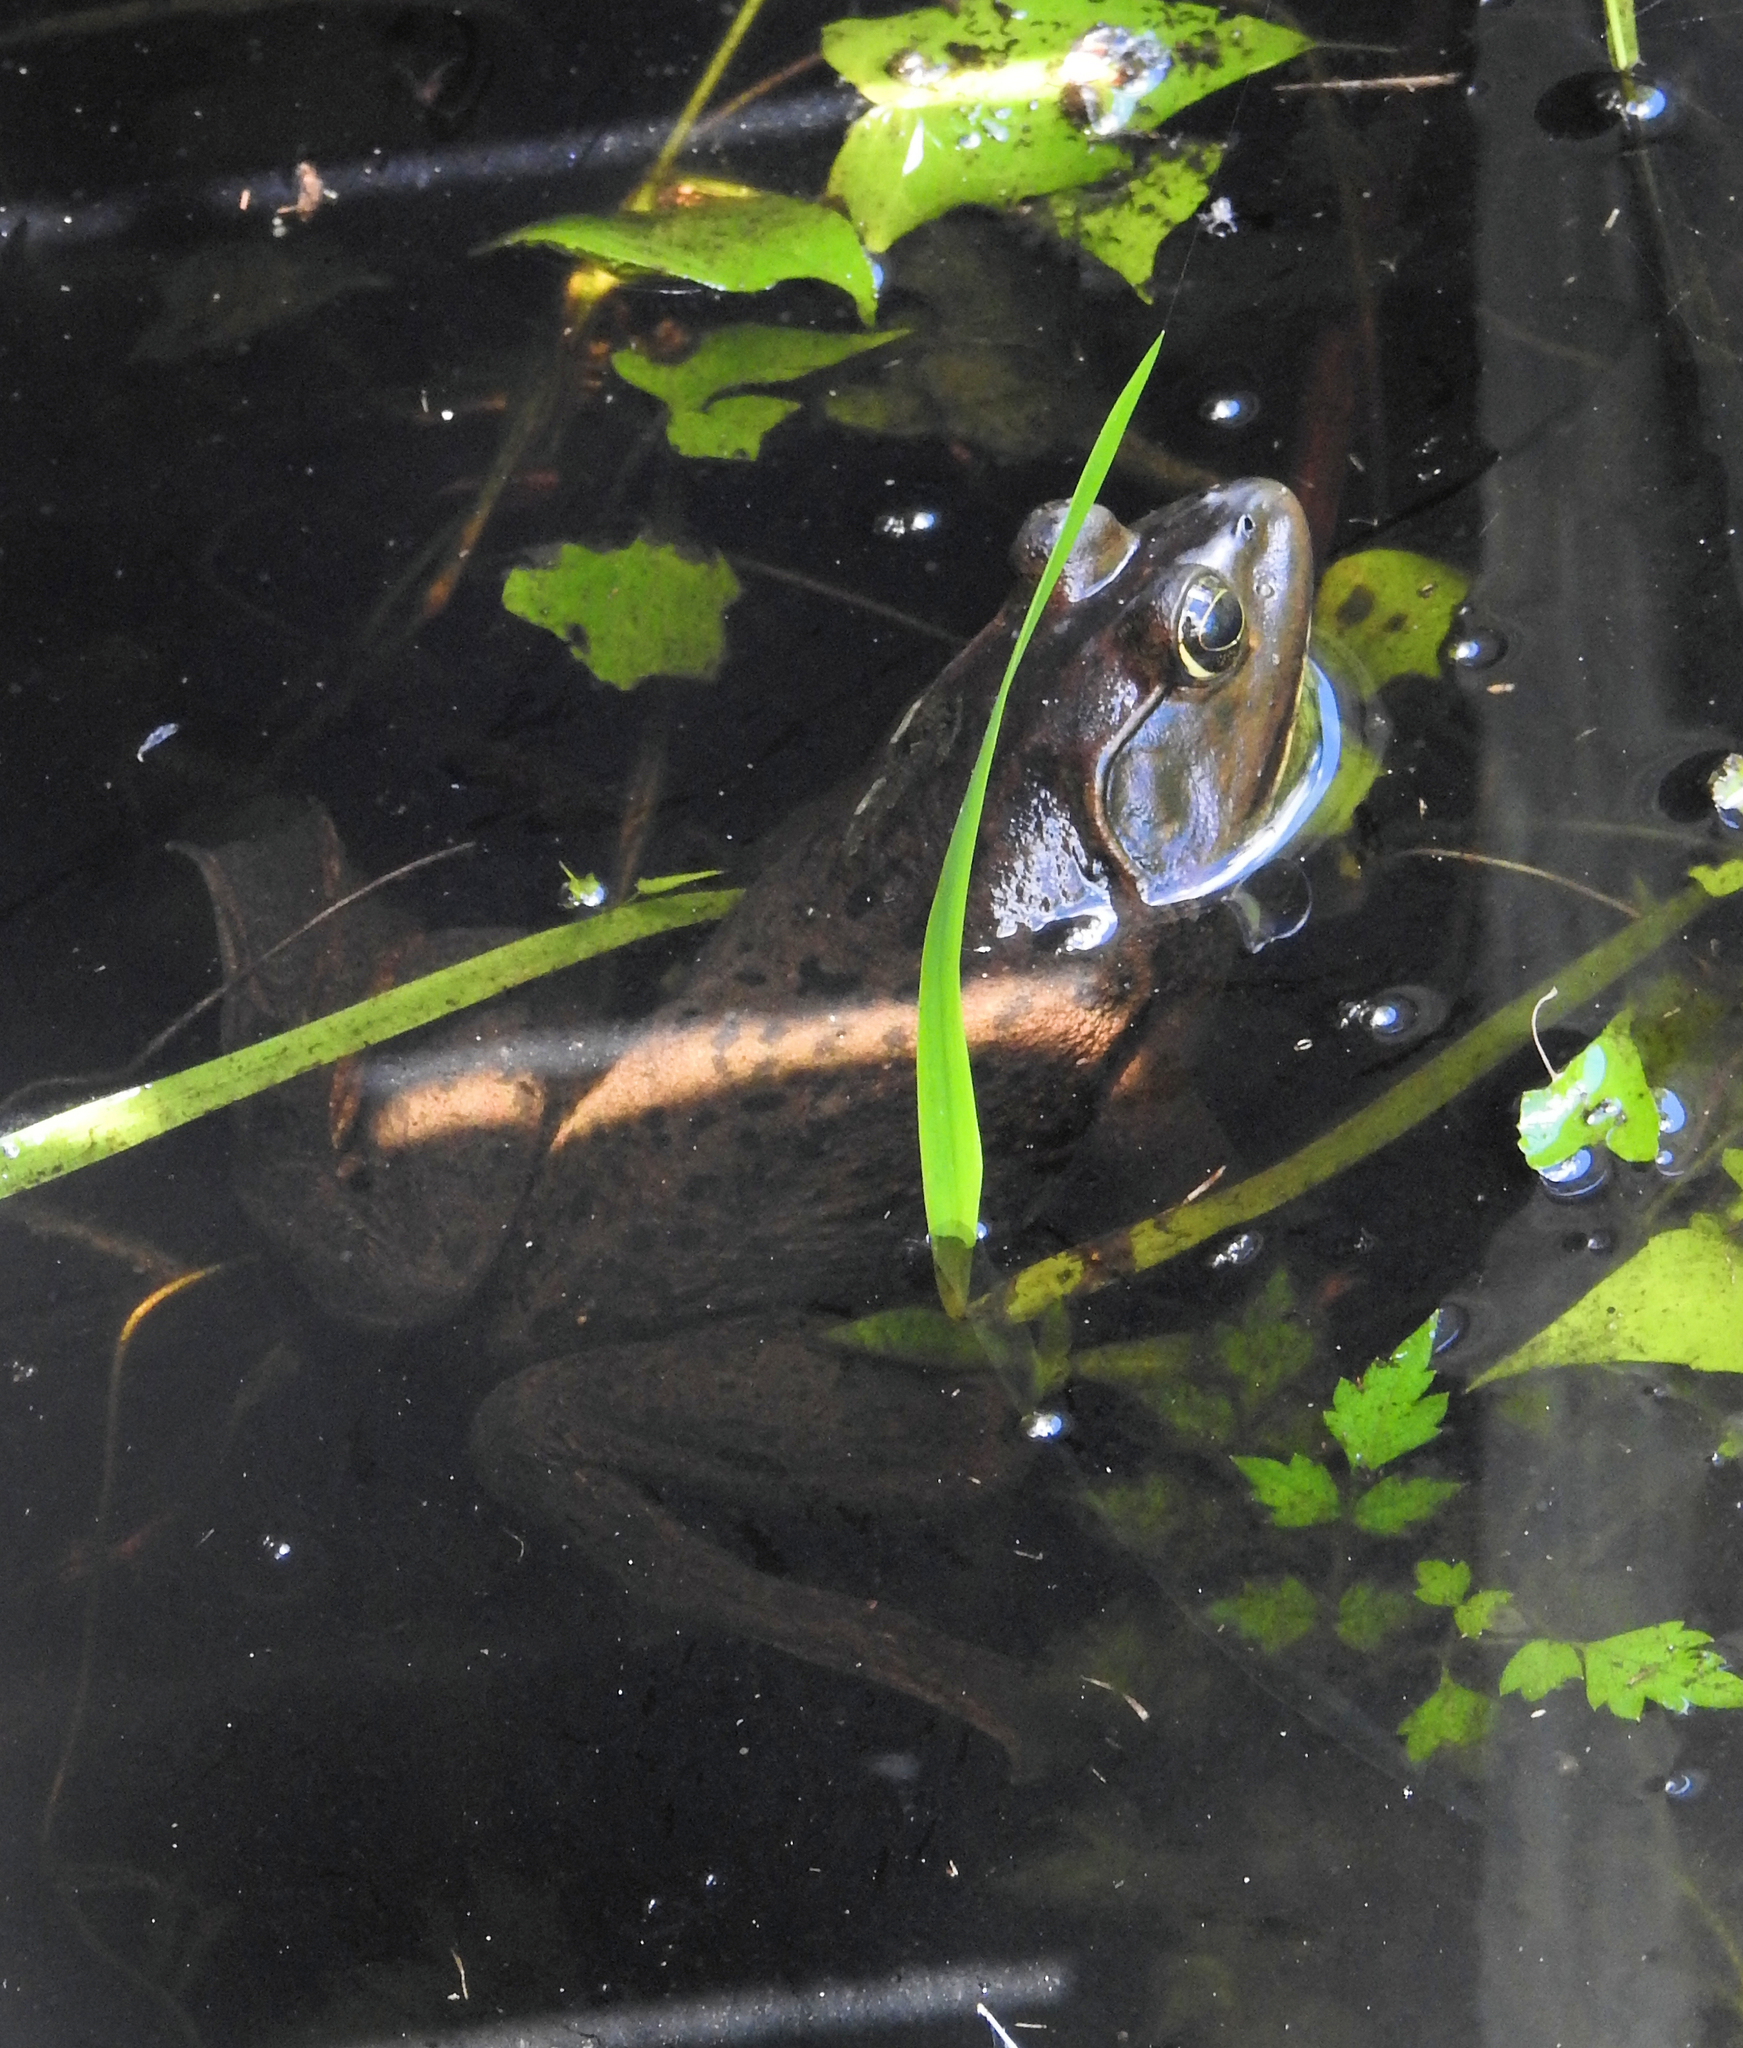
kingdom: Animalia
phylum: Chordata
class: Amphibia
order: Anura
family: Ranidae
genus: Lithobates
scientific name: Lithobates grylio
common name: Pig frog
